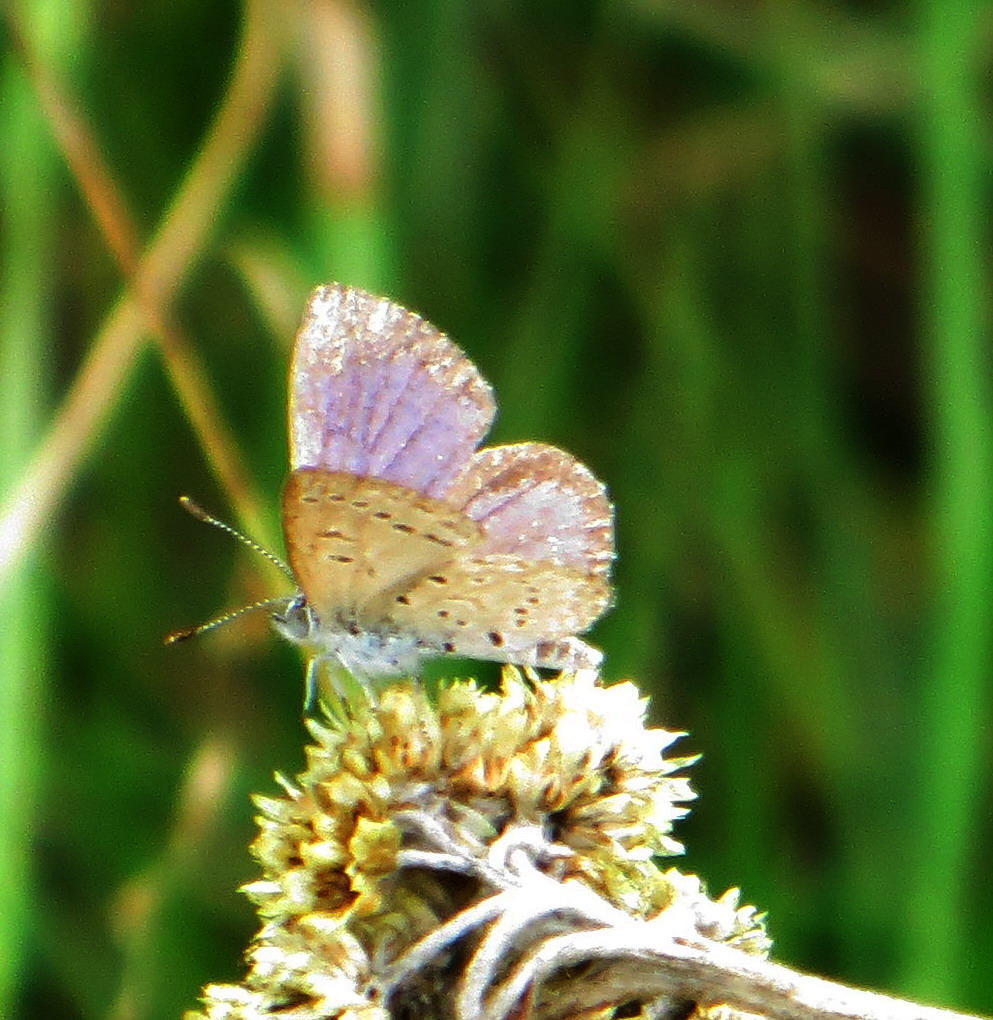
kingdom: Animalia
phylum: Arthropoda
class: Insecta
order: Lepidoptera
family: Lycaenidae
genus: Zizeeria
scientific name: Zizeeria knysna
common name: African grass blue
